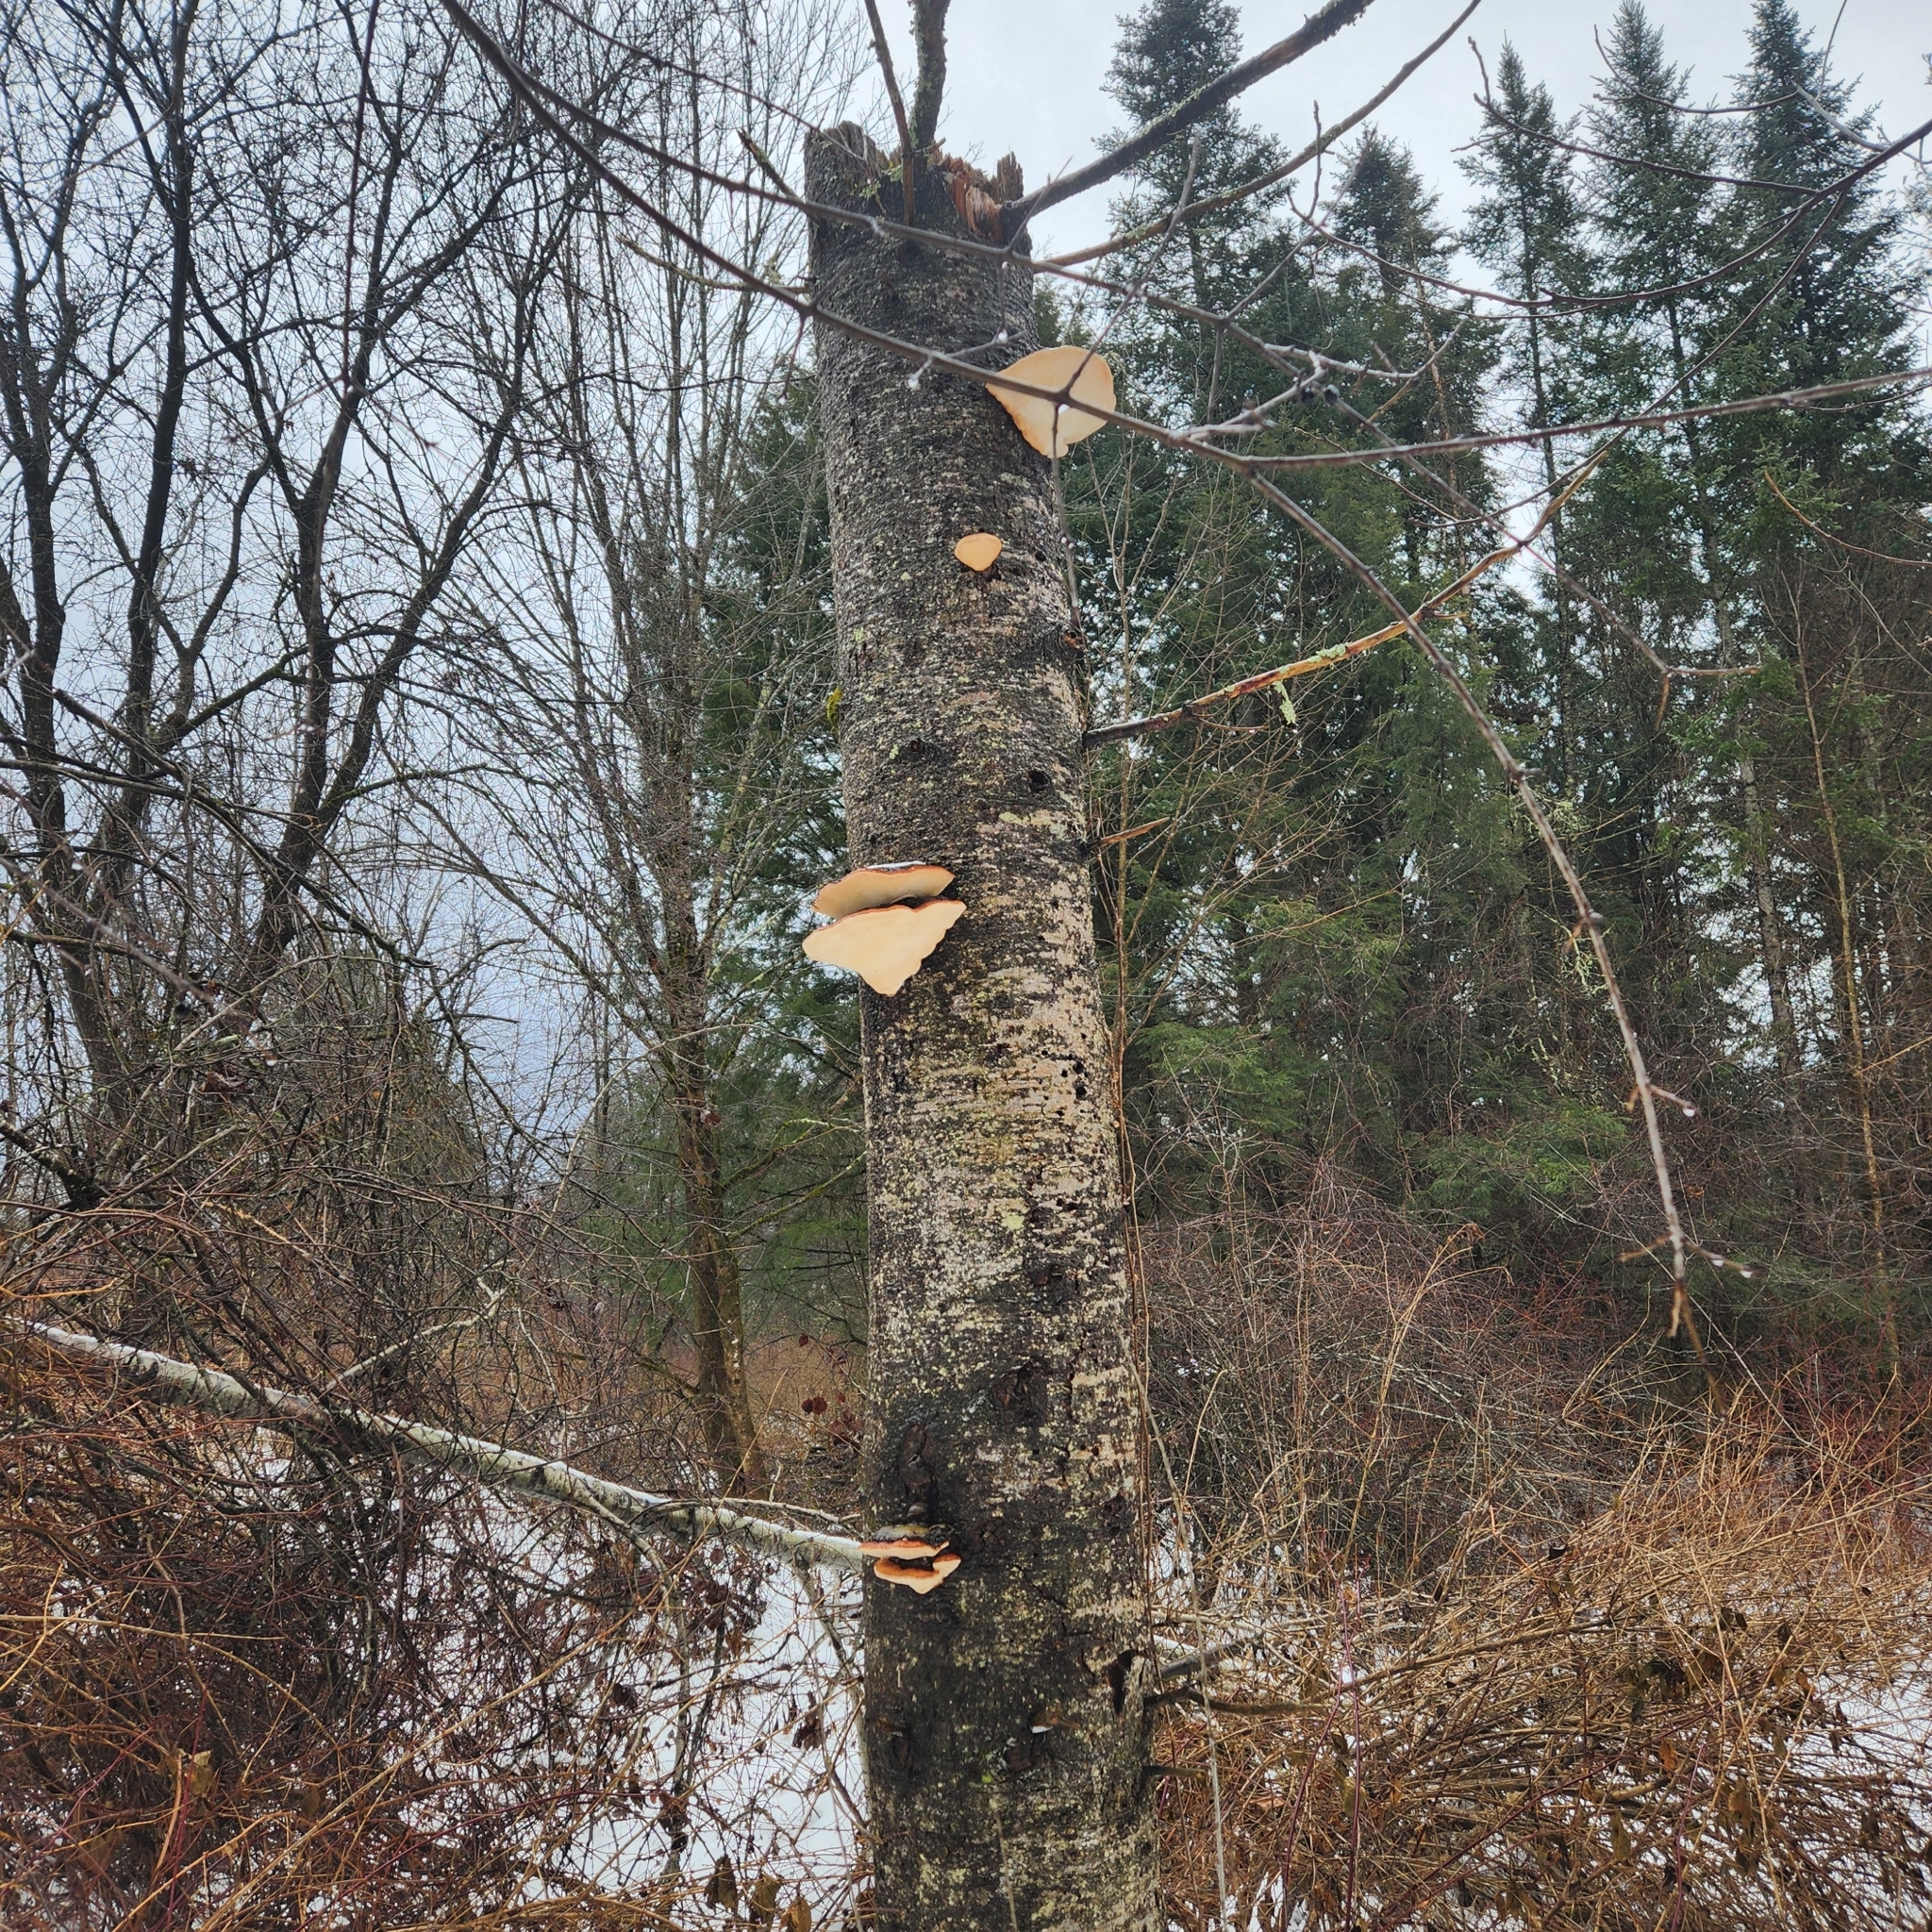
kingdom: Fungi
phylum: Basidiomycota
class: Agaricomycetes
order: Polyporales
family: Fomitopsidaceae
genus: Fomitopsis
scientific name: Fomitopsis mounceae
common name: Northern red belt
